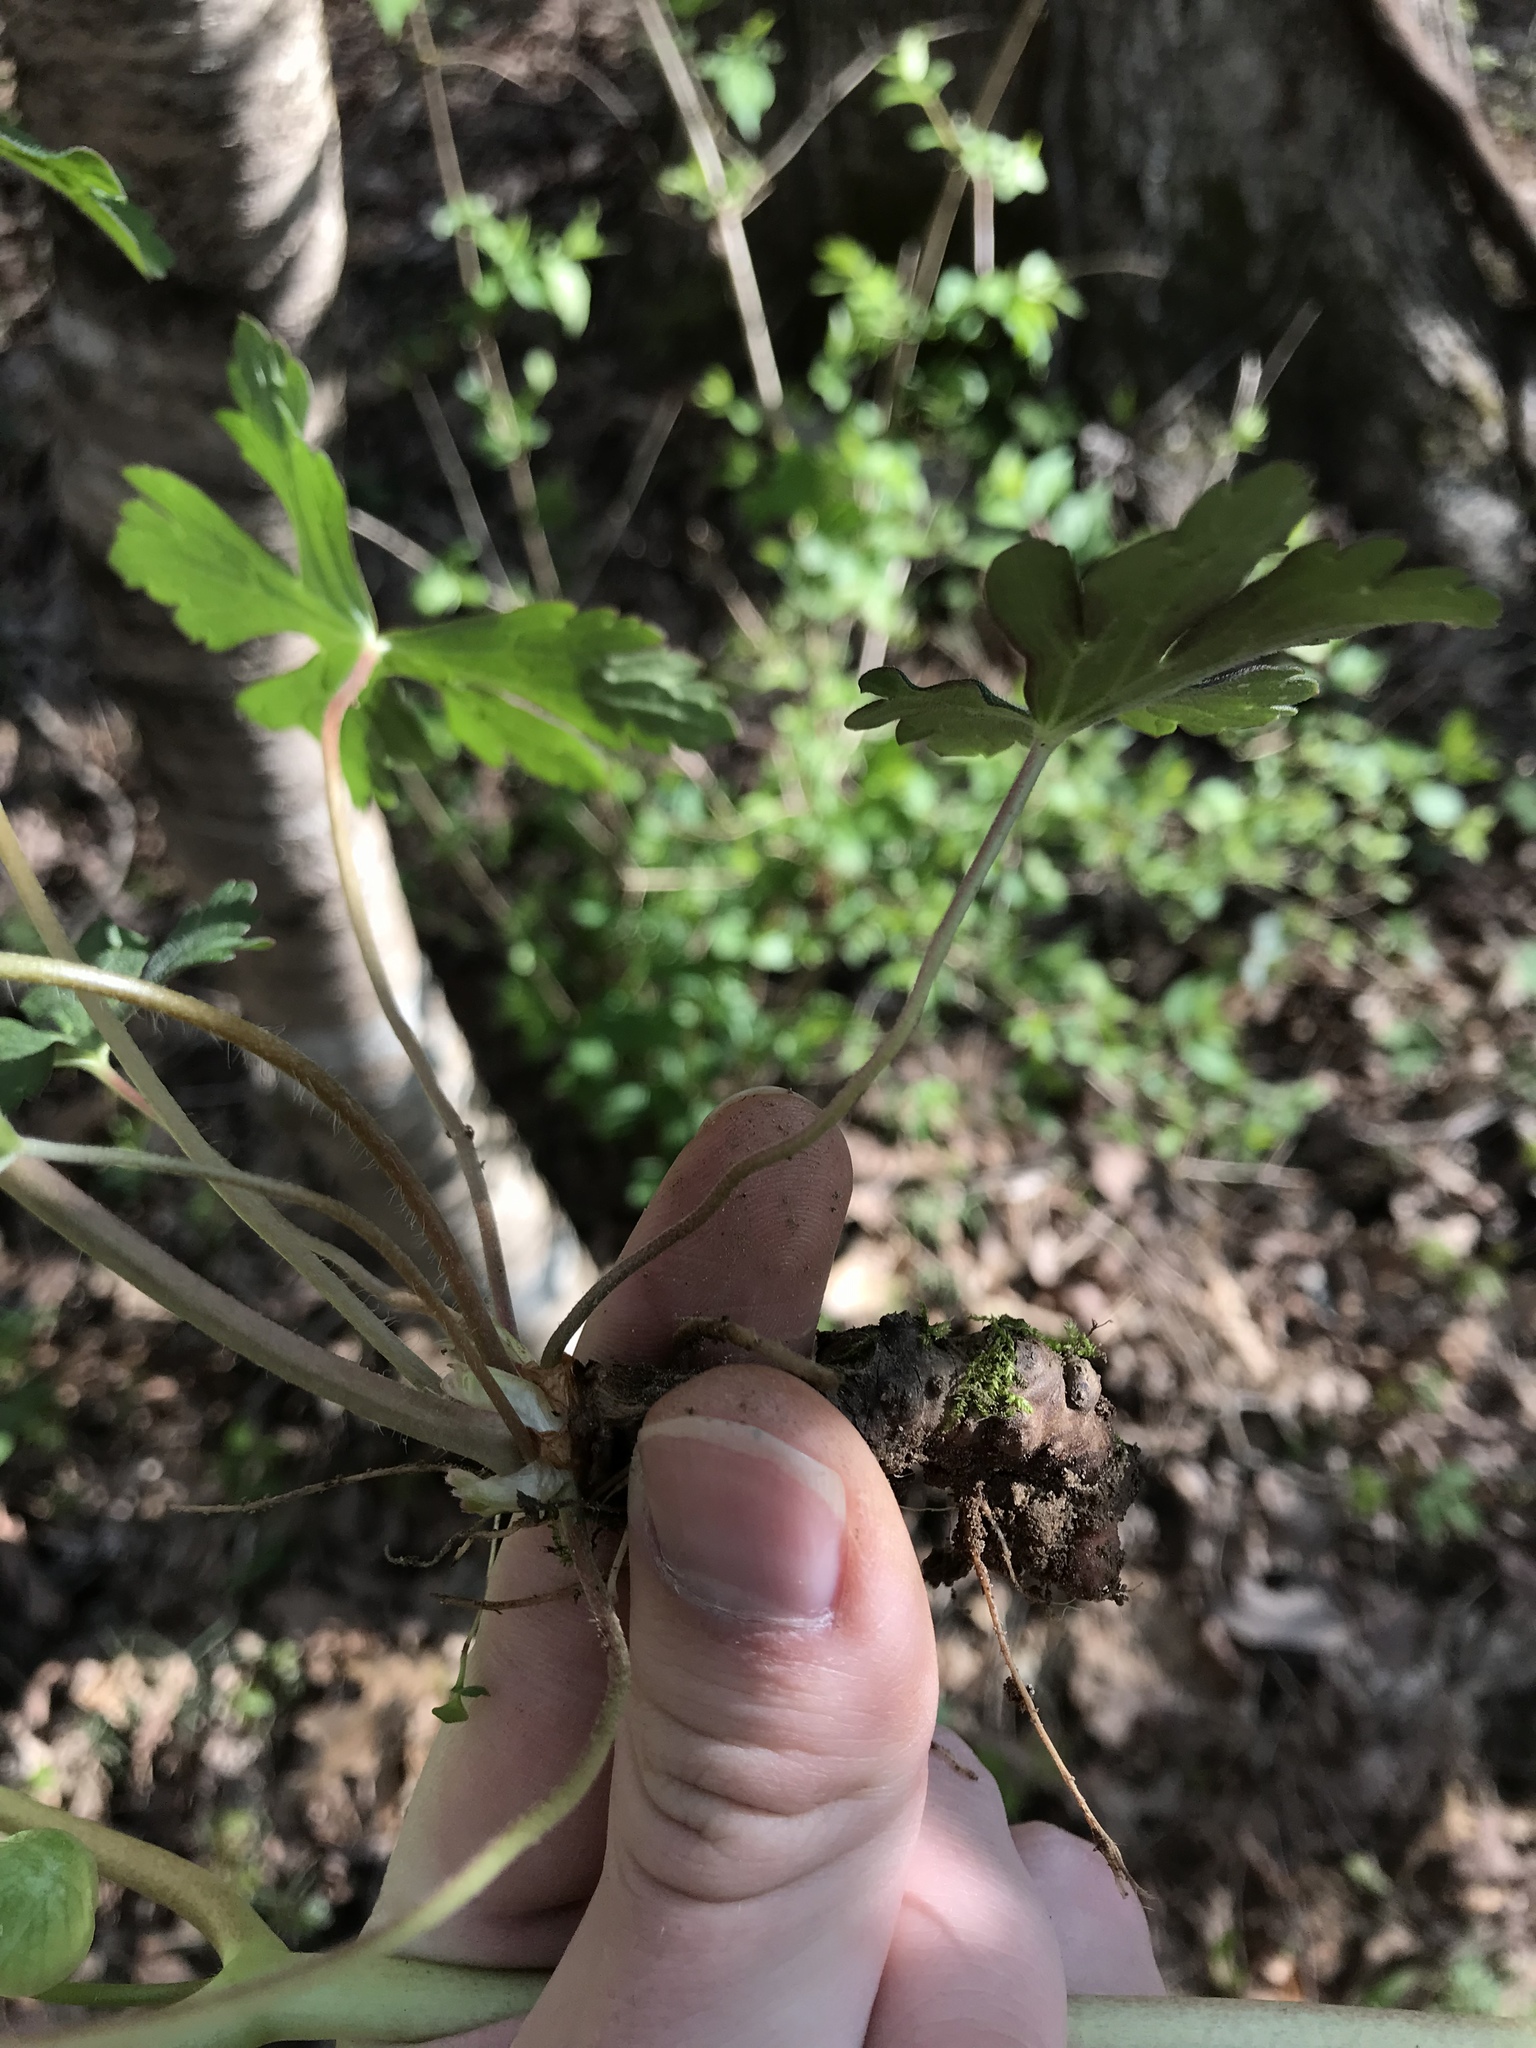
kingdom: Plantae
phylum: Tracheophyta
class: Magnoliopsida
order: Geraniales
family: Geraniaceae
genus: Geranium
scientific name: Geranium maculatum
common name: Spotted geranium
